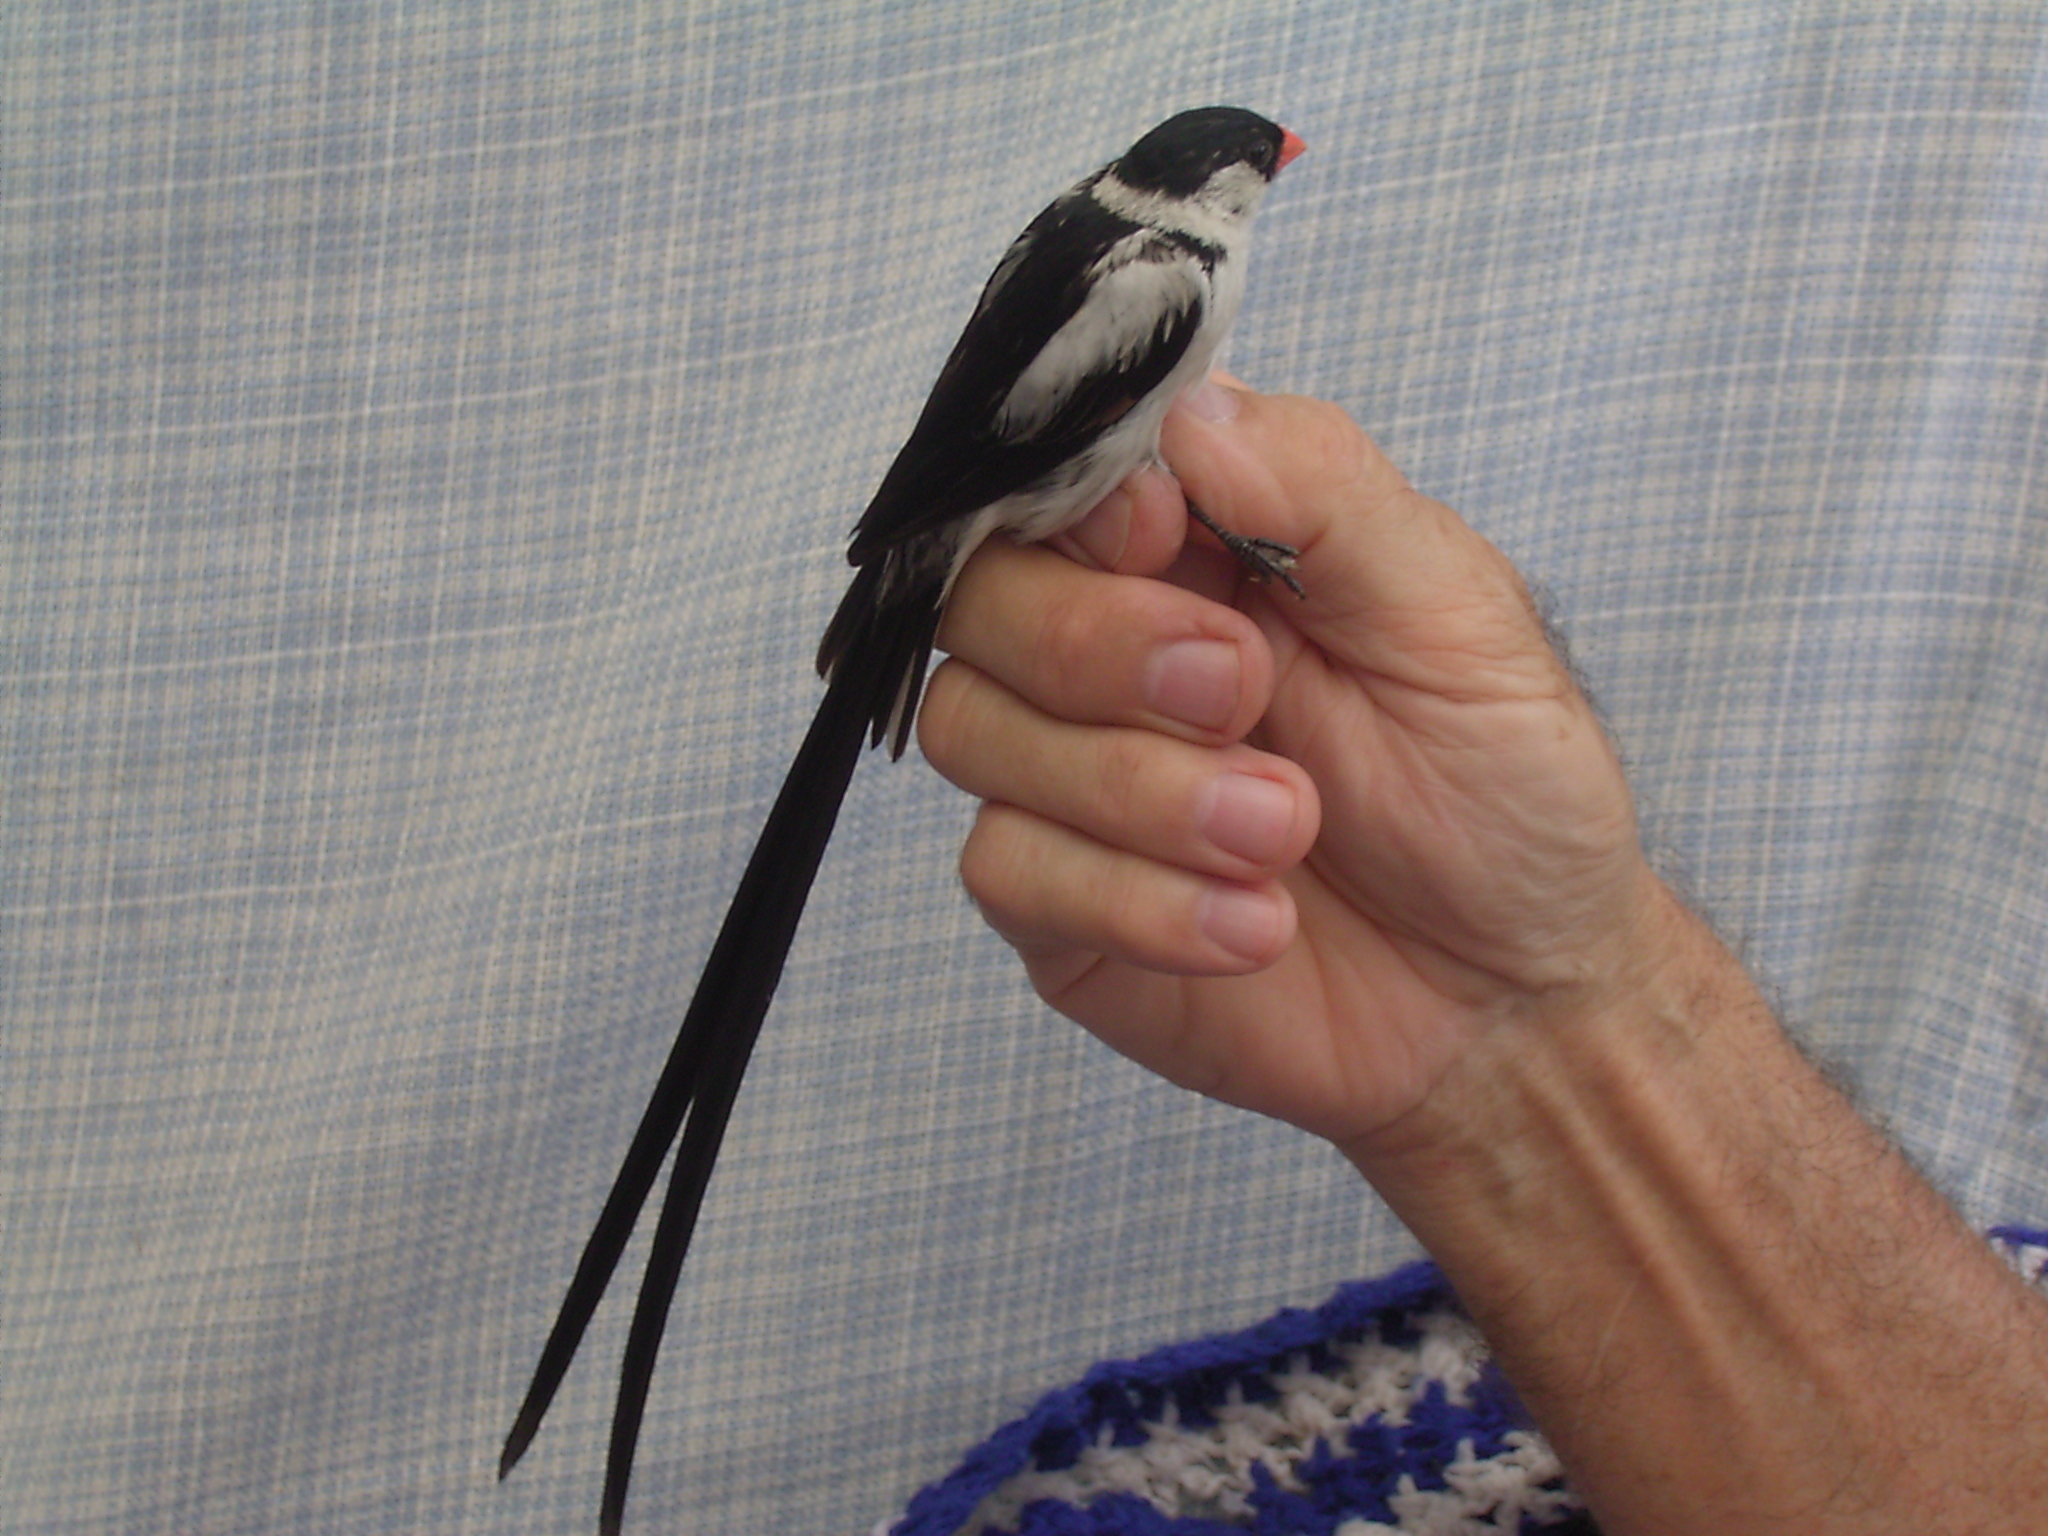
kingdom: Animalia
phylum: Chordata
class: Aves
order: Passeriformes
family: Viduidae
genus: Vidua
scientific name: Vidua macroura
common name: Pin-tailed whydah
